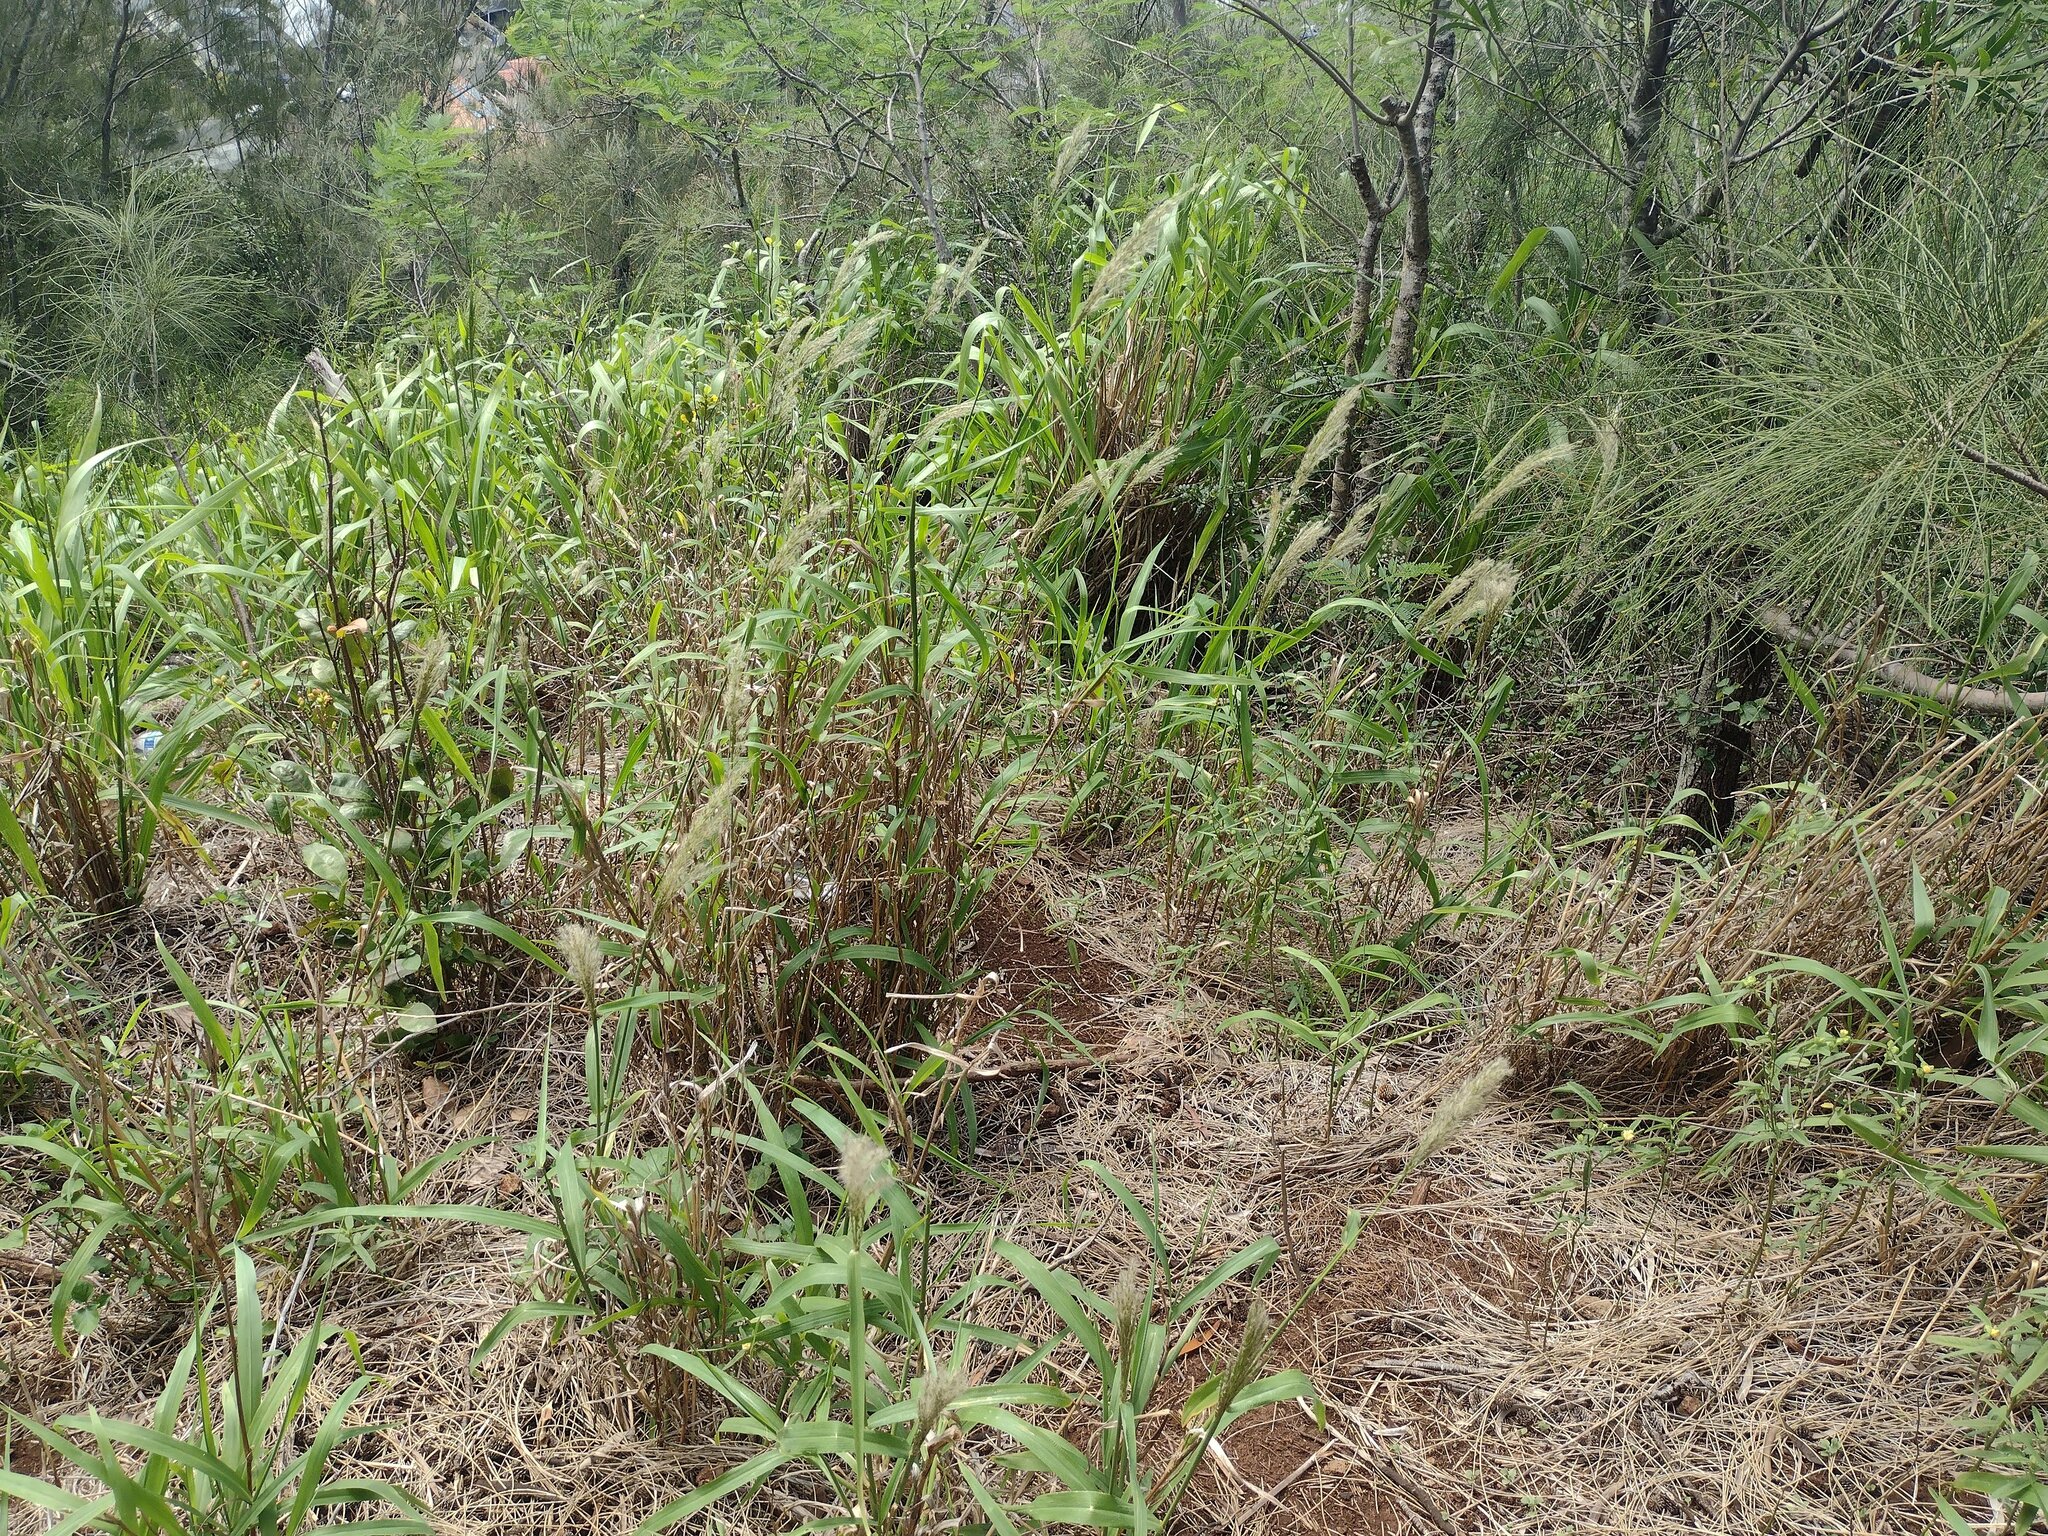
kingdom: Plantae
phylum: Tracheophyta
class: Liliopsida
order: Poales
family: Poaceae
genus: Digitaria
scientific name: Digitaria insularis
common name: Sourgrass
